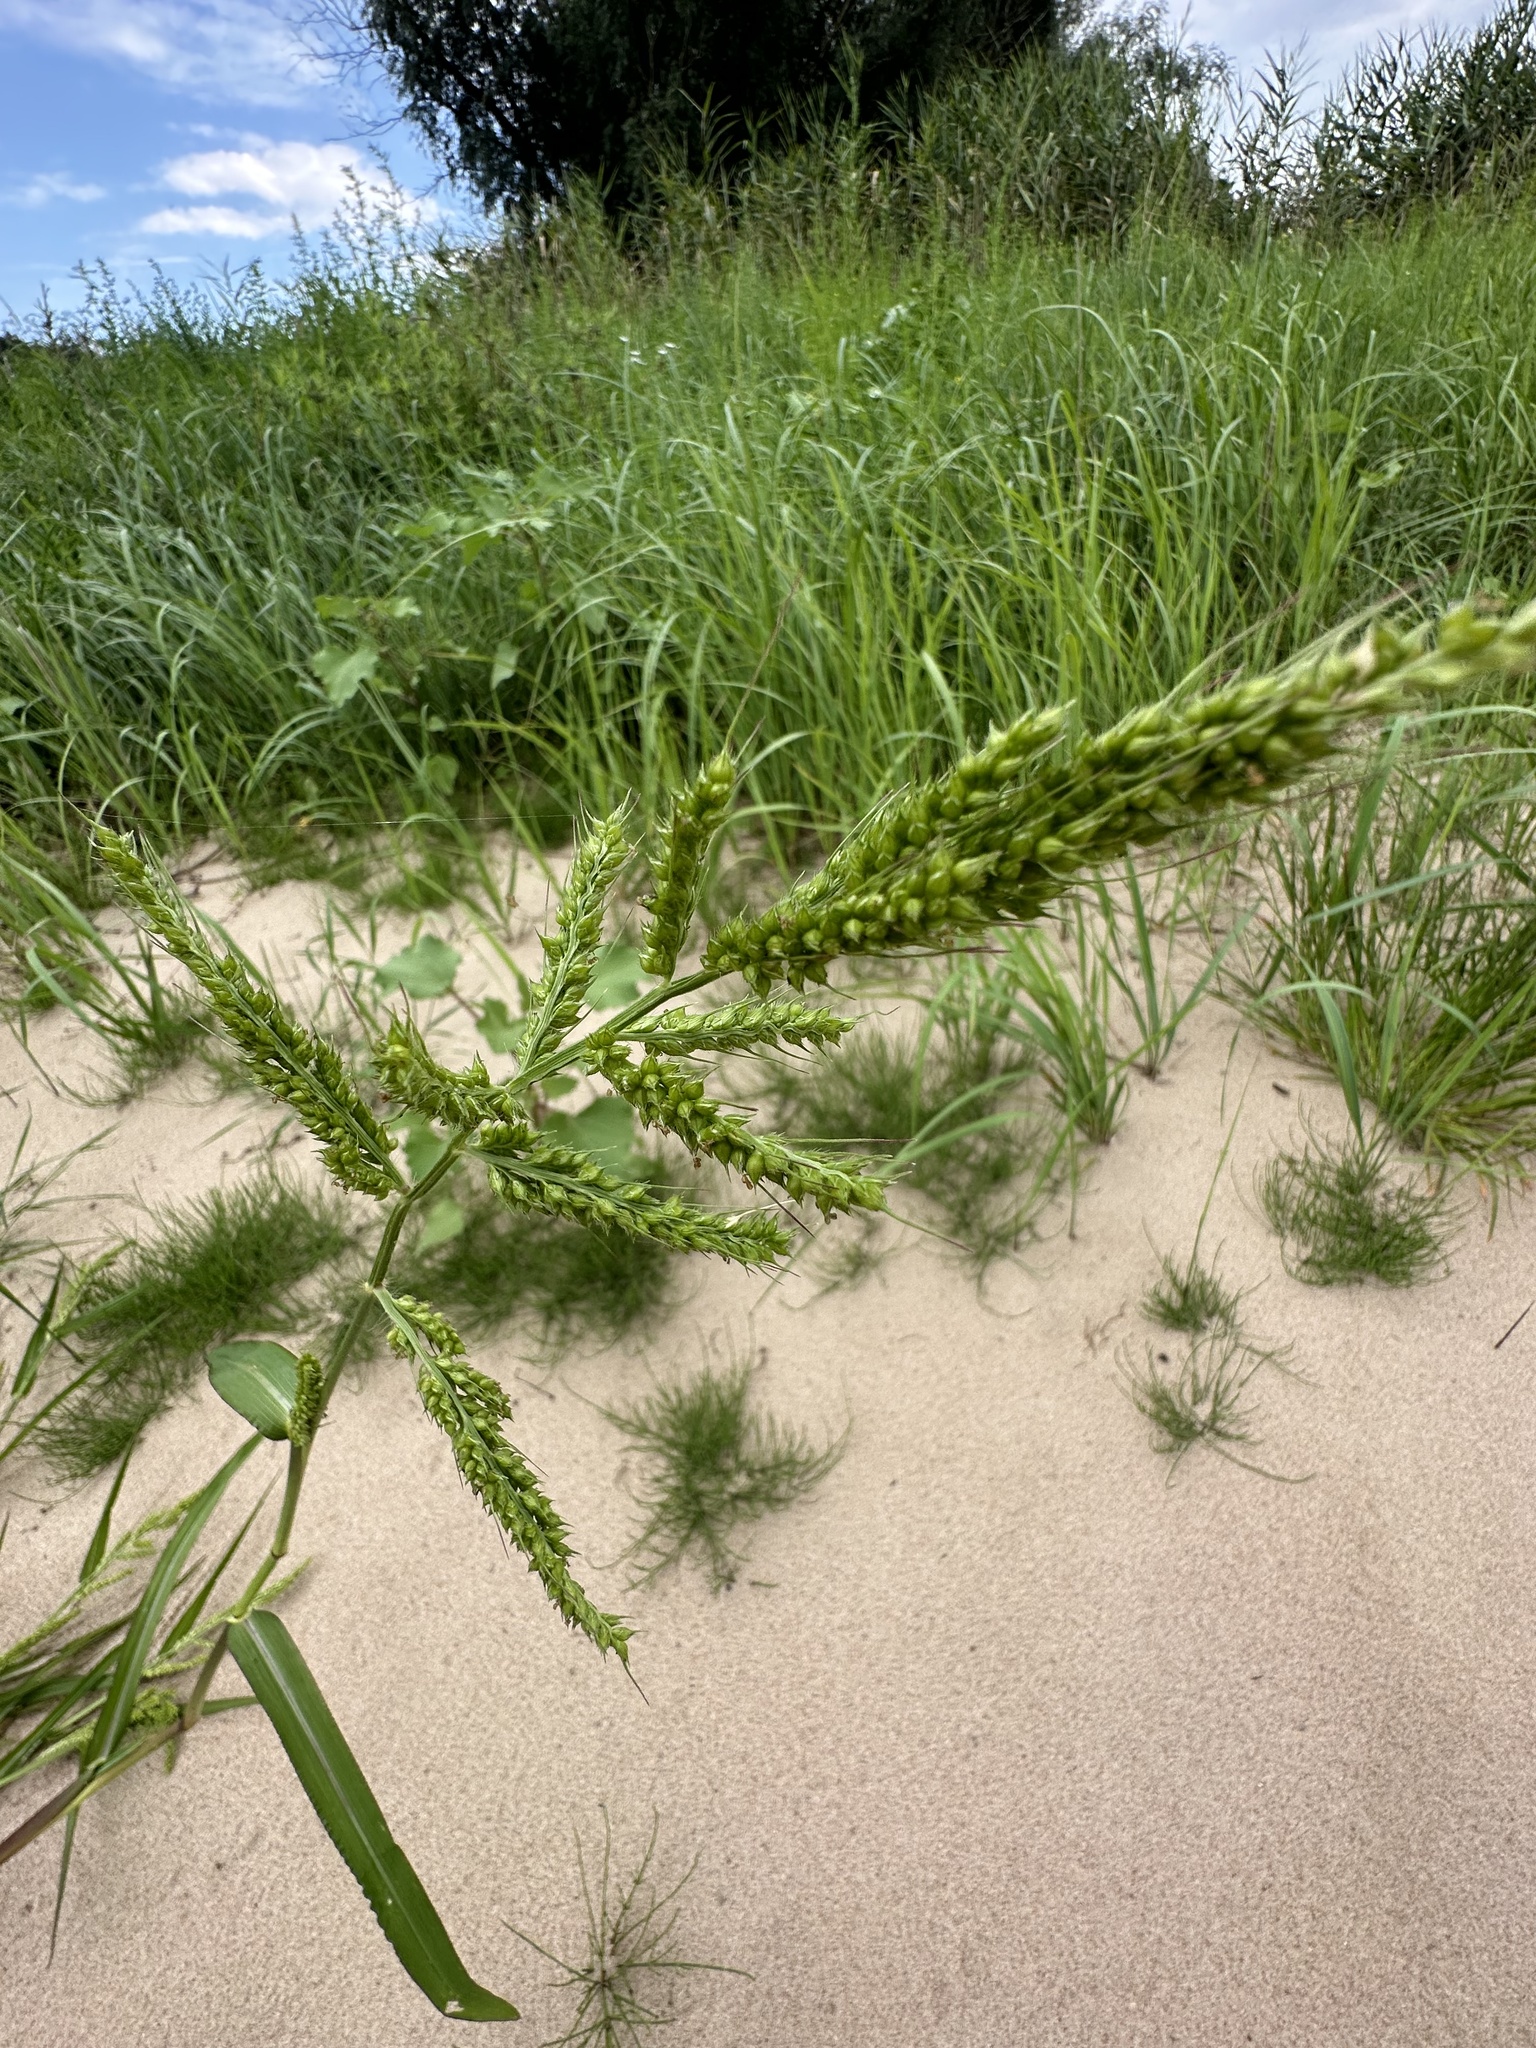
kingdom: Plantae
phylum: Tracheophyta
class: Liliopsida
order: Poales
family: Poaceae
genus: Echinochloa
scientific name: Echinochloa crus-galli
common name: Cockspur
